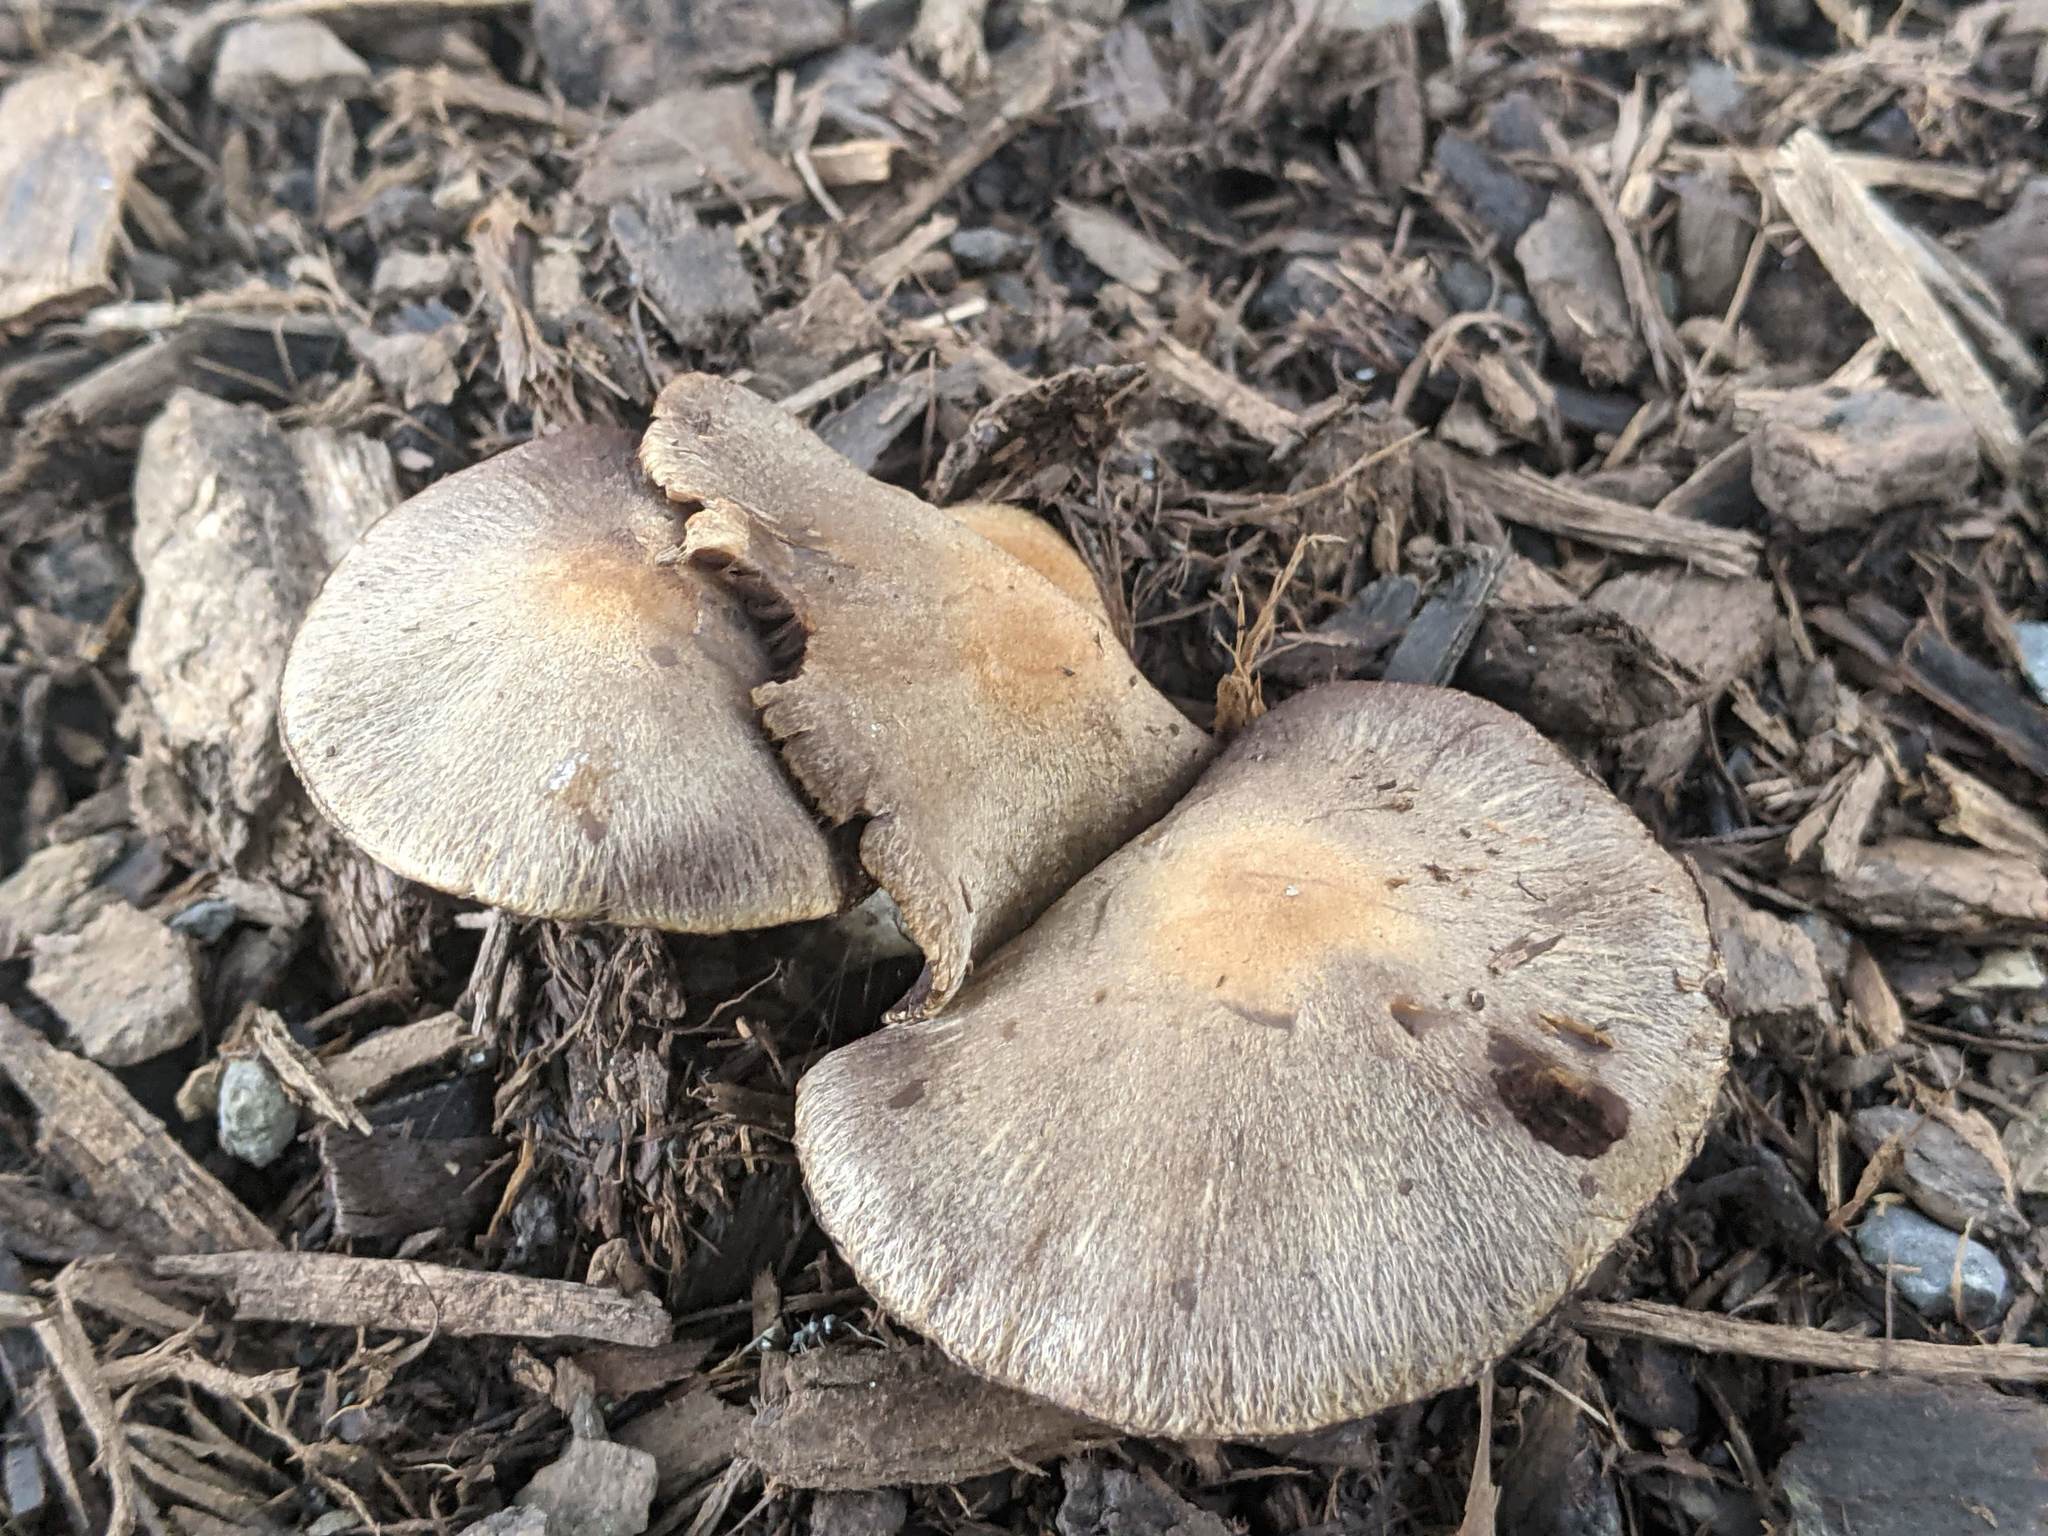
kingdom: Fungi
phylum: Basidiomycota
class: Agaricomycetes
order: Agaricales
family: Psathyrellaceae
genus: Lacrymaria
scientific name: Lacrymaria lacrymabunda
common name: Weeping widow
